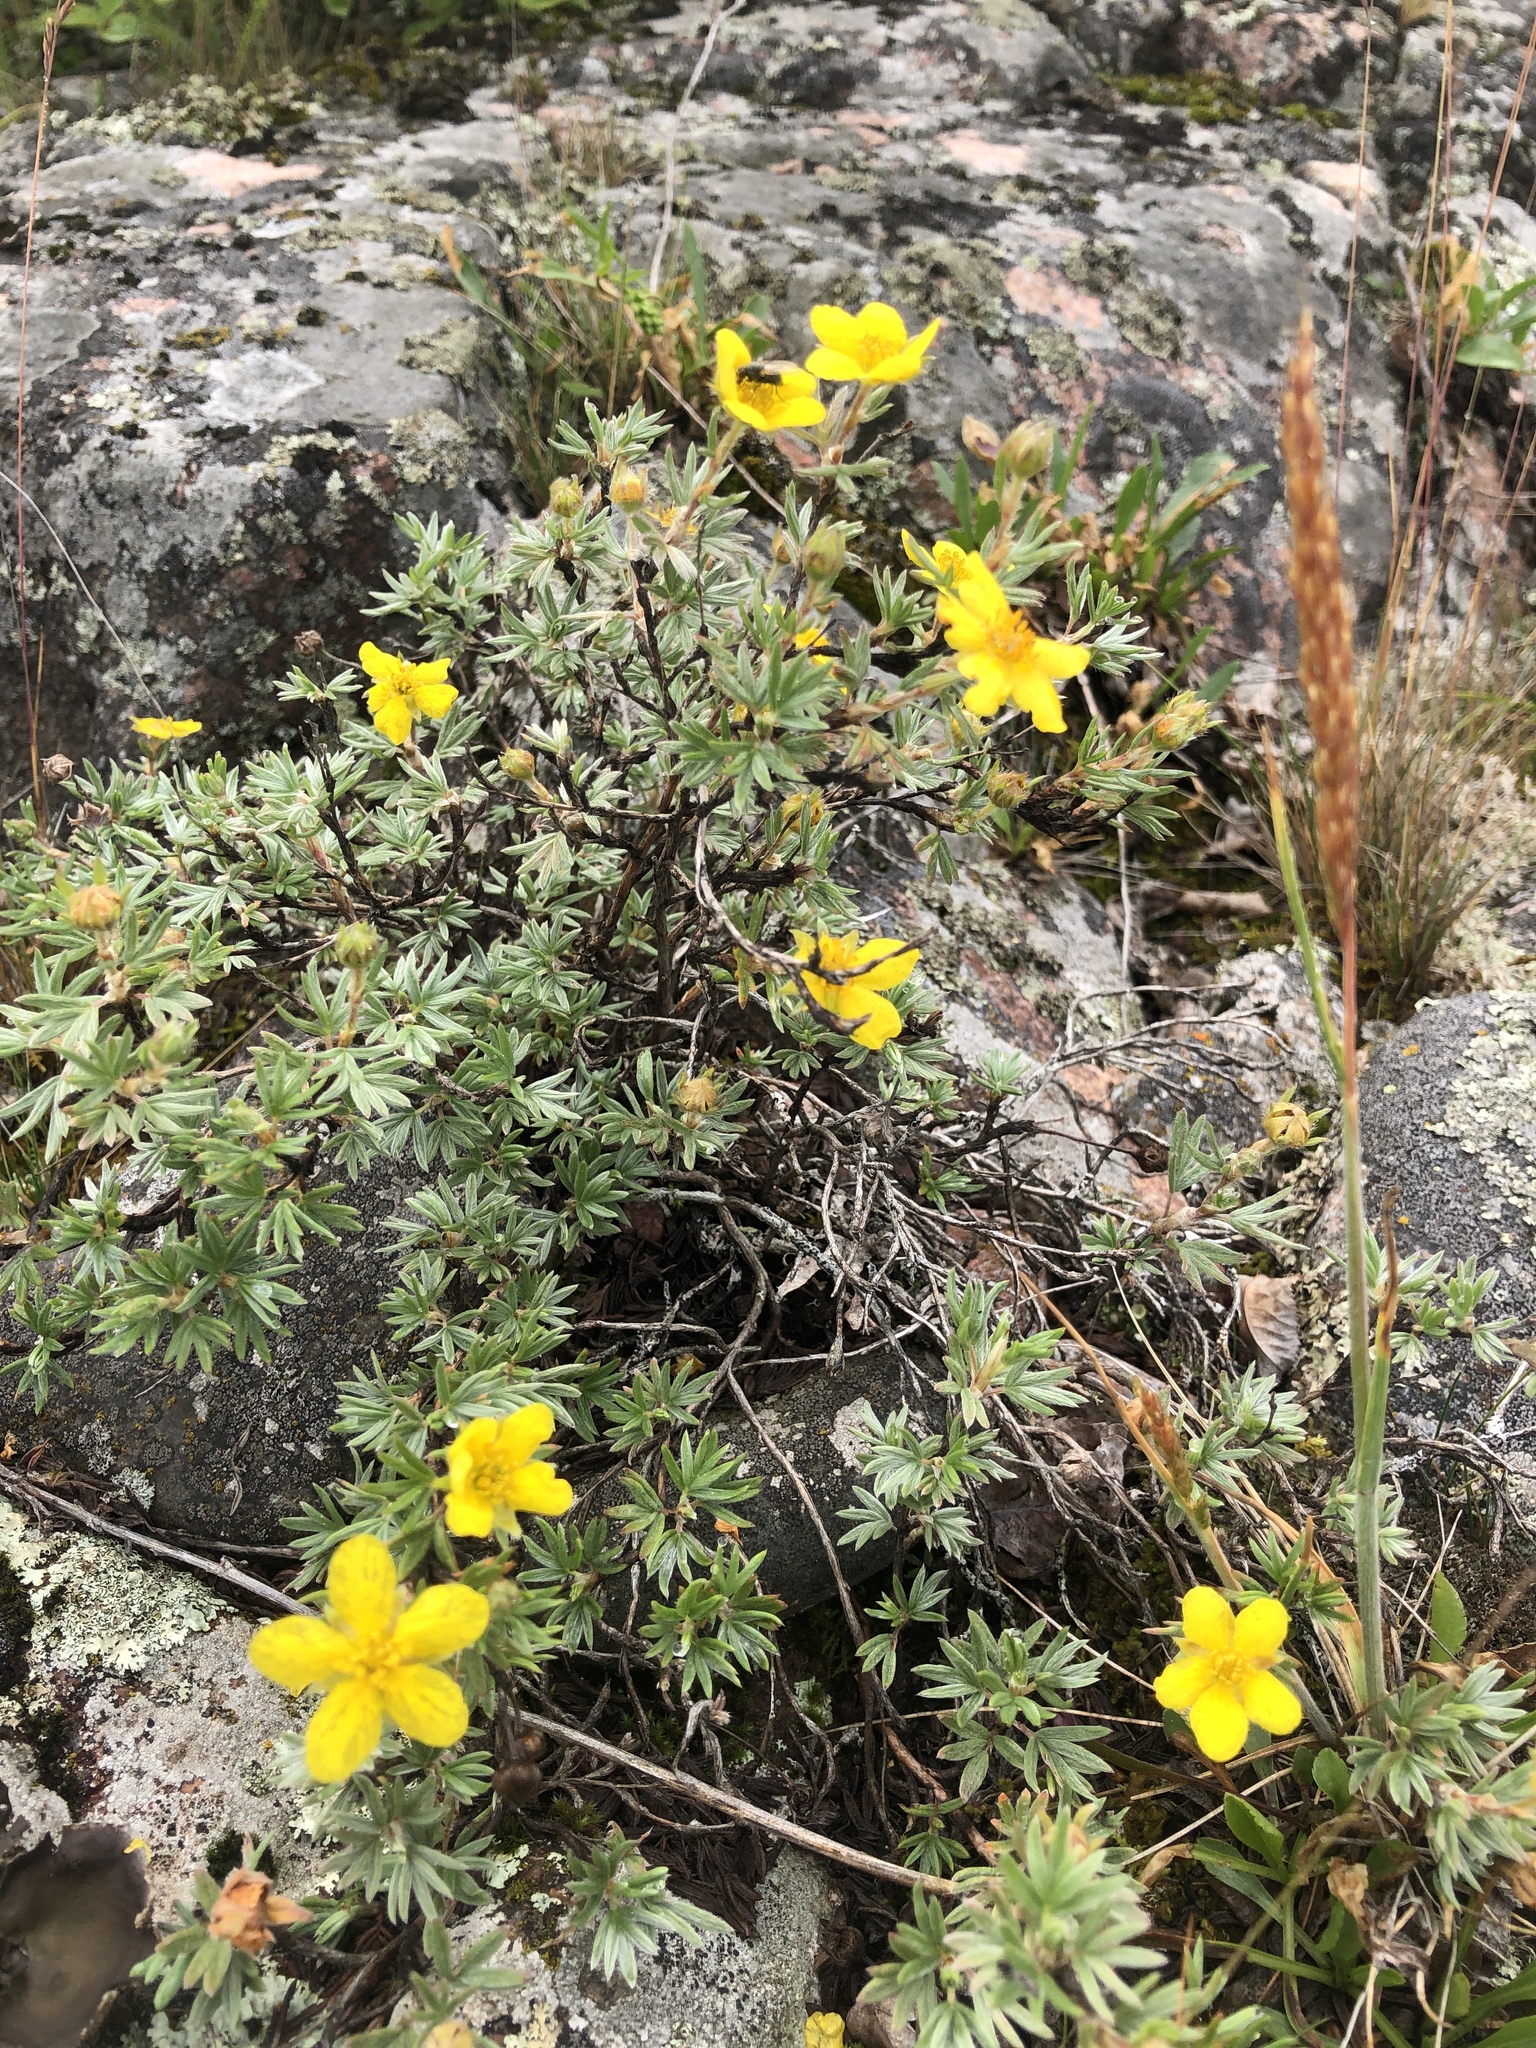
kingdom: Plantae
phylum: Tracheophyta
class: Magnoliopsida
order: Rosales
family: Rosaceae
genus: Dasiphora
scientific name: Dasiphora fruticosa
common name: Shrubby cinquefoil
